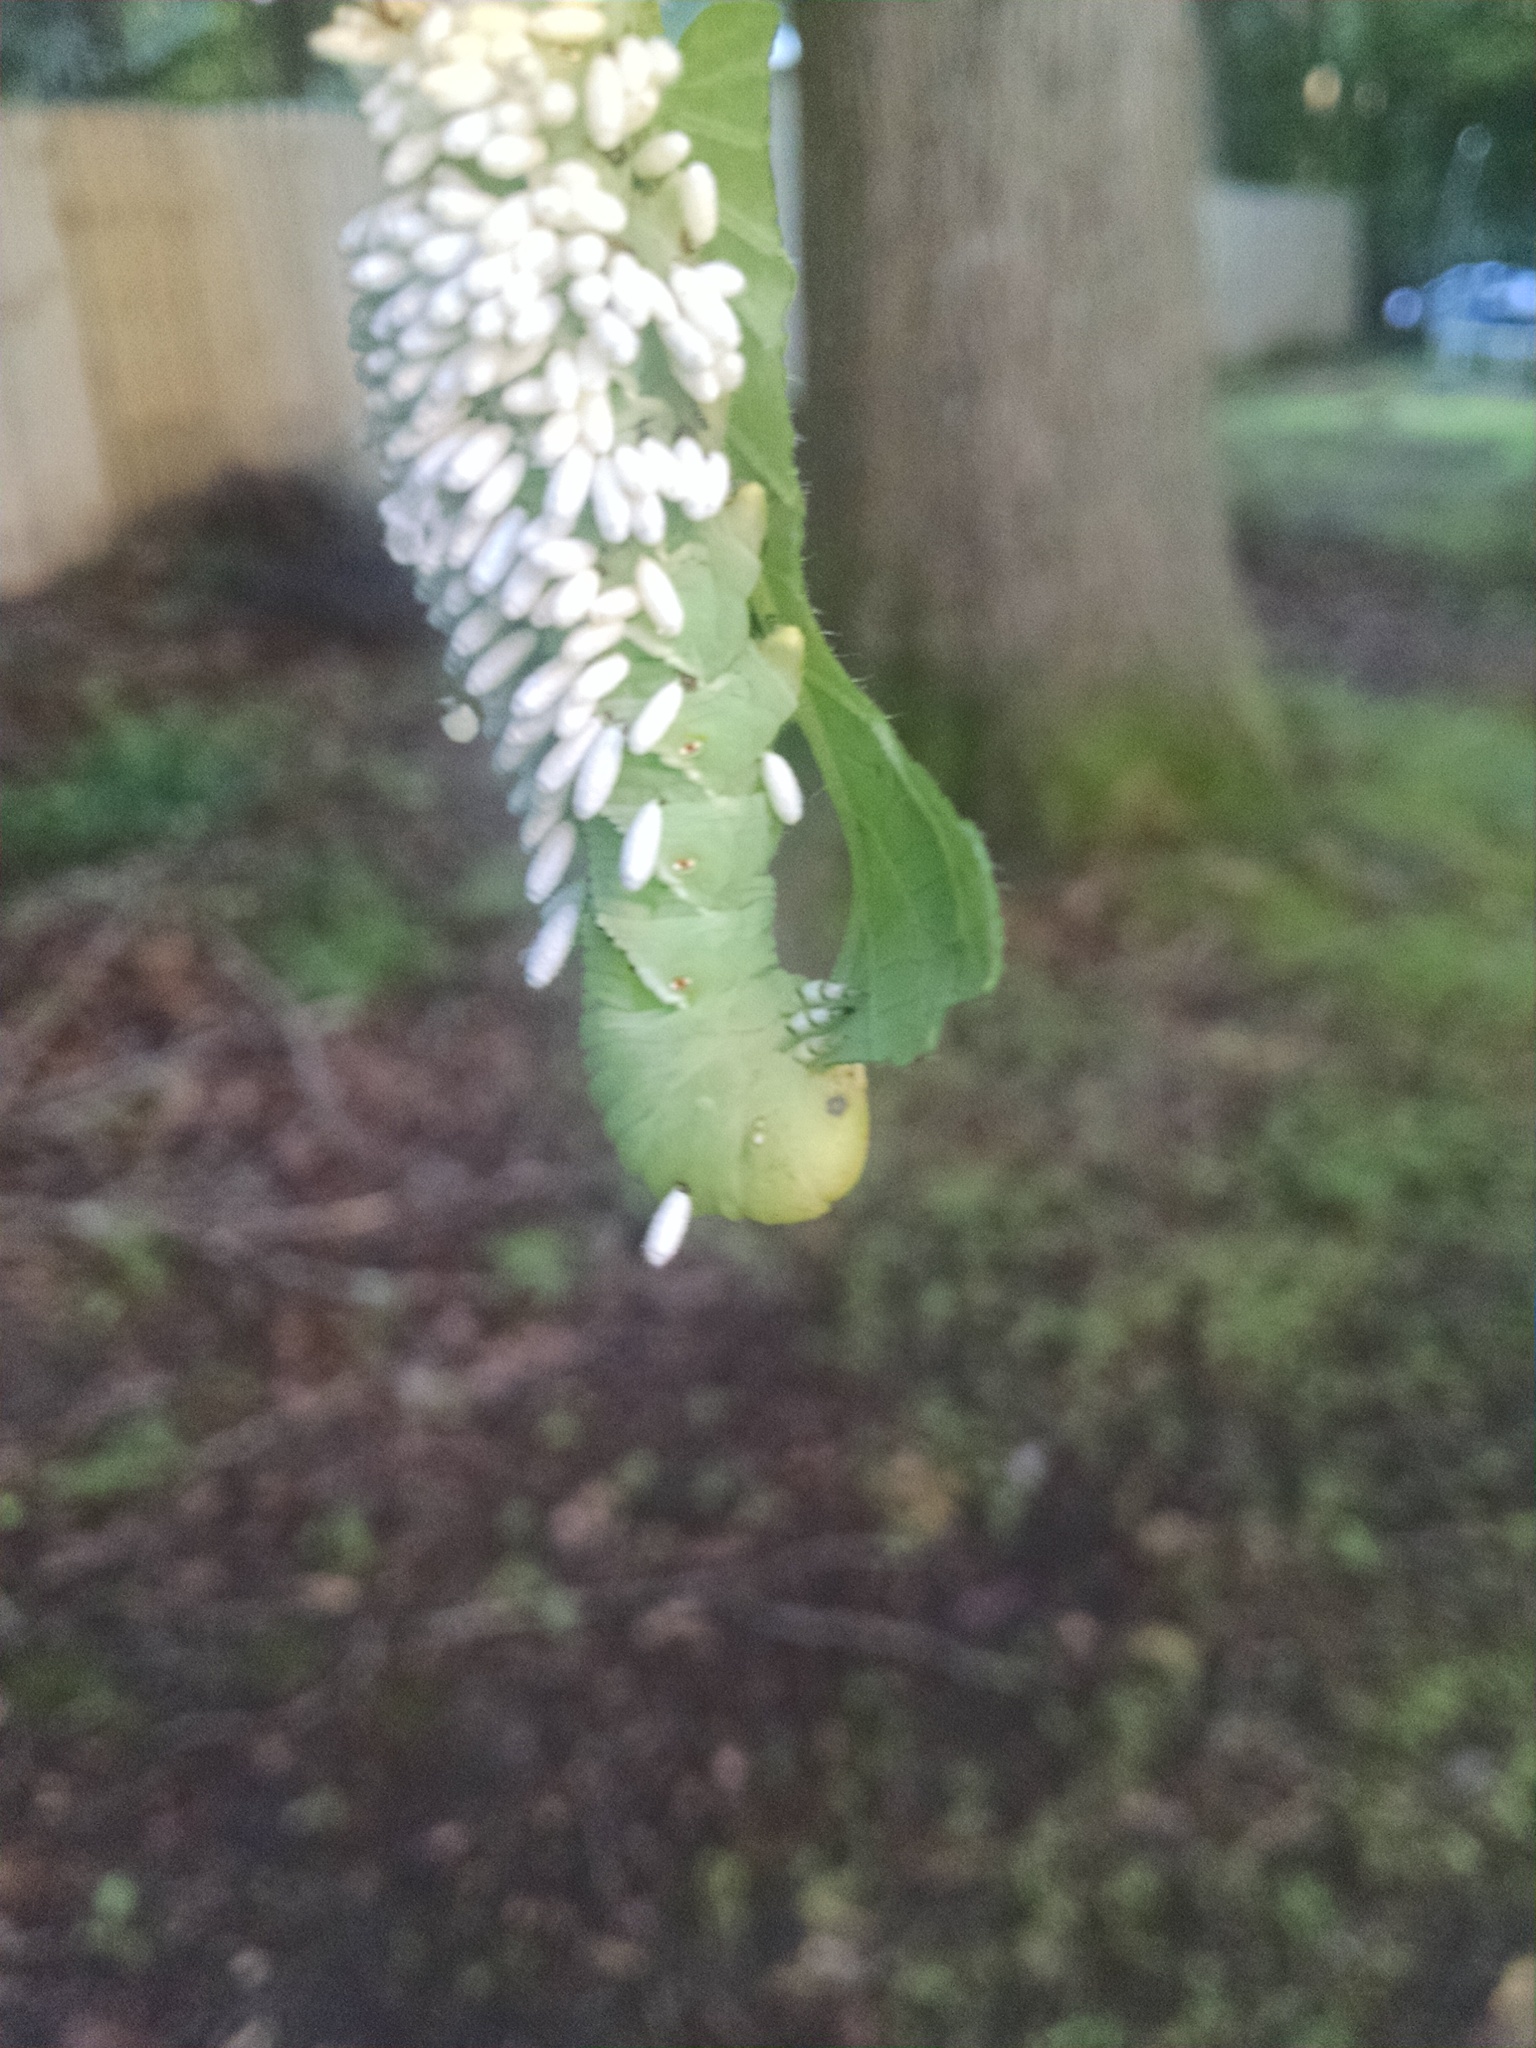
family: Polydnaviriformidae
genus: Bracoviriform
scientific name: Bracoviriform congregatae
